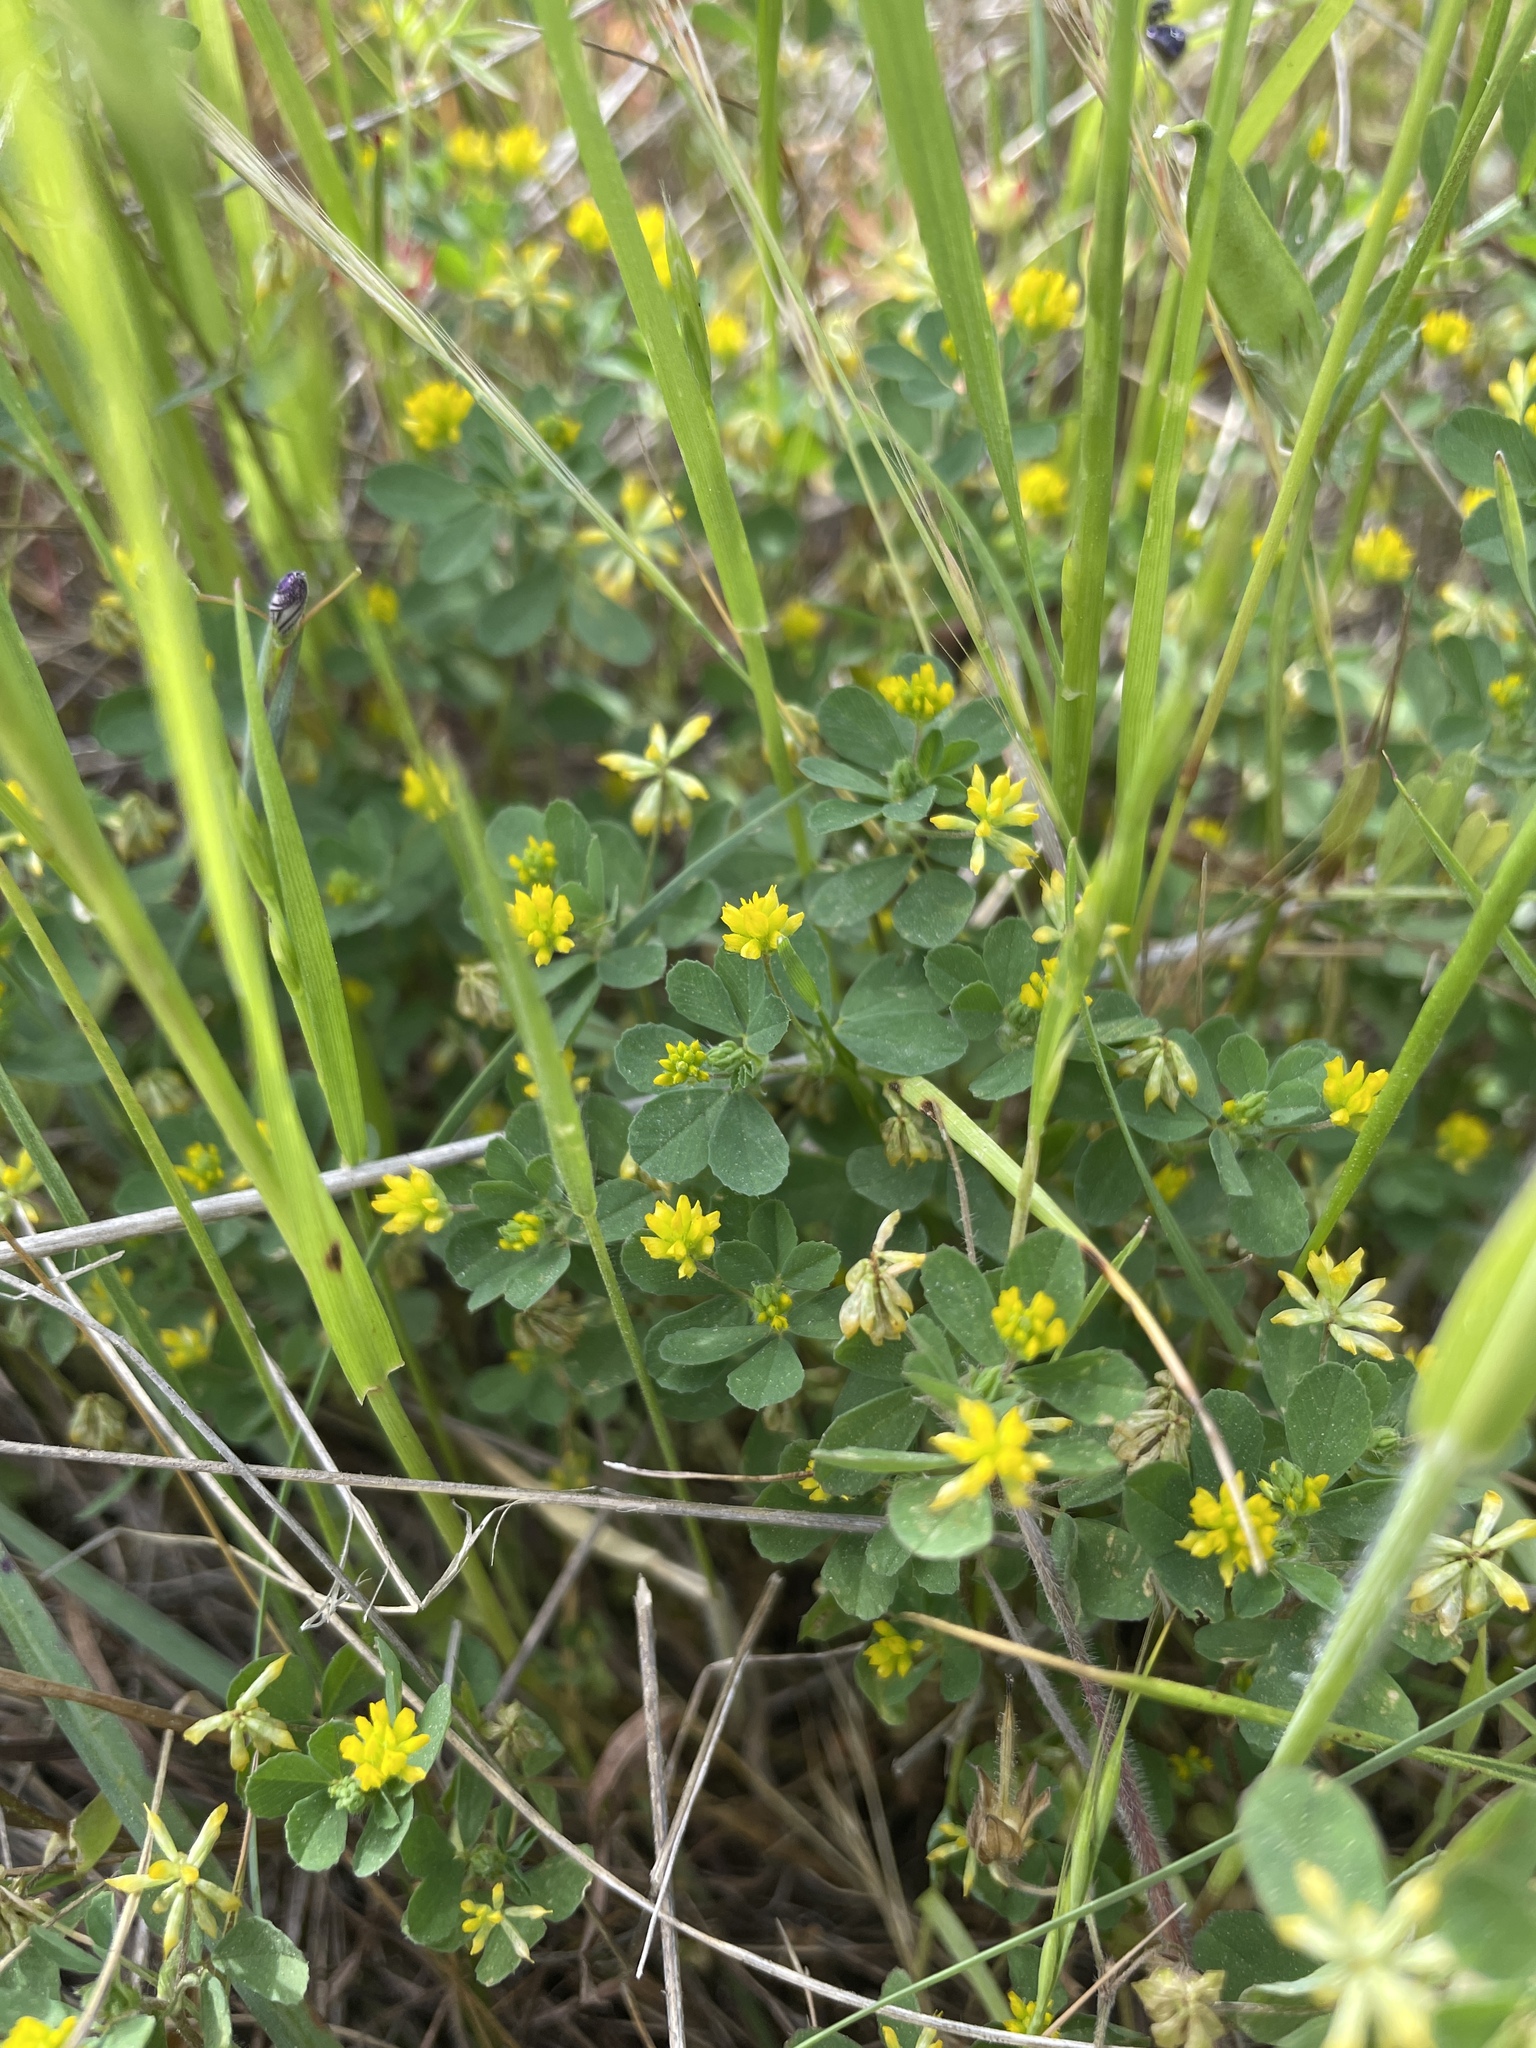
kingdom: Plantae
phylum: Tracheophyta
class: Magnoliopsida
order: Fabales
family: Fabaceae
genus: Trifolium
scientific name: Trifolium dubium
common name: Suckling clover
